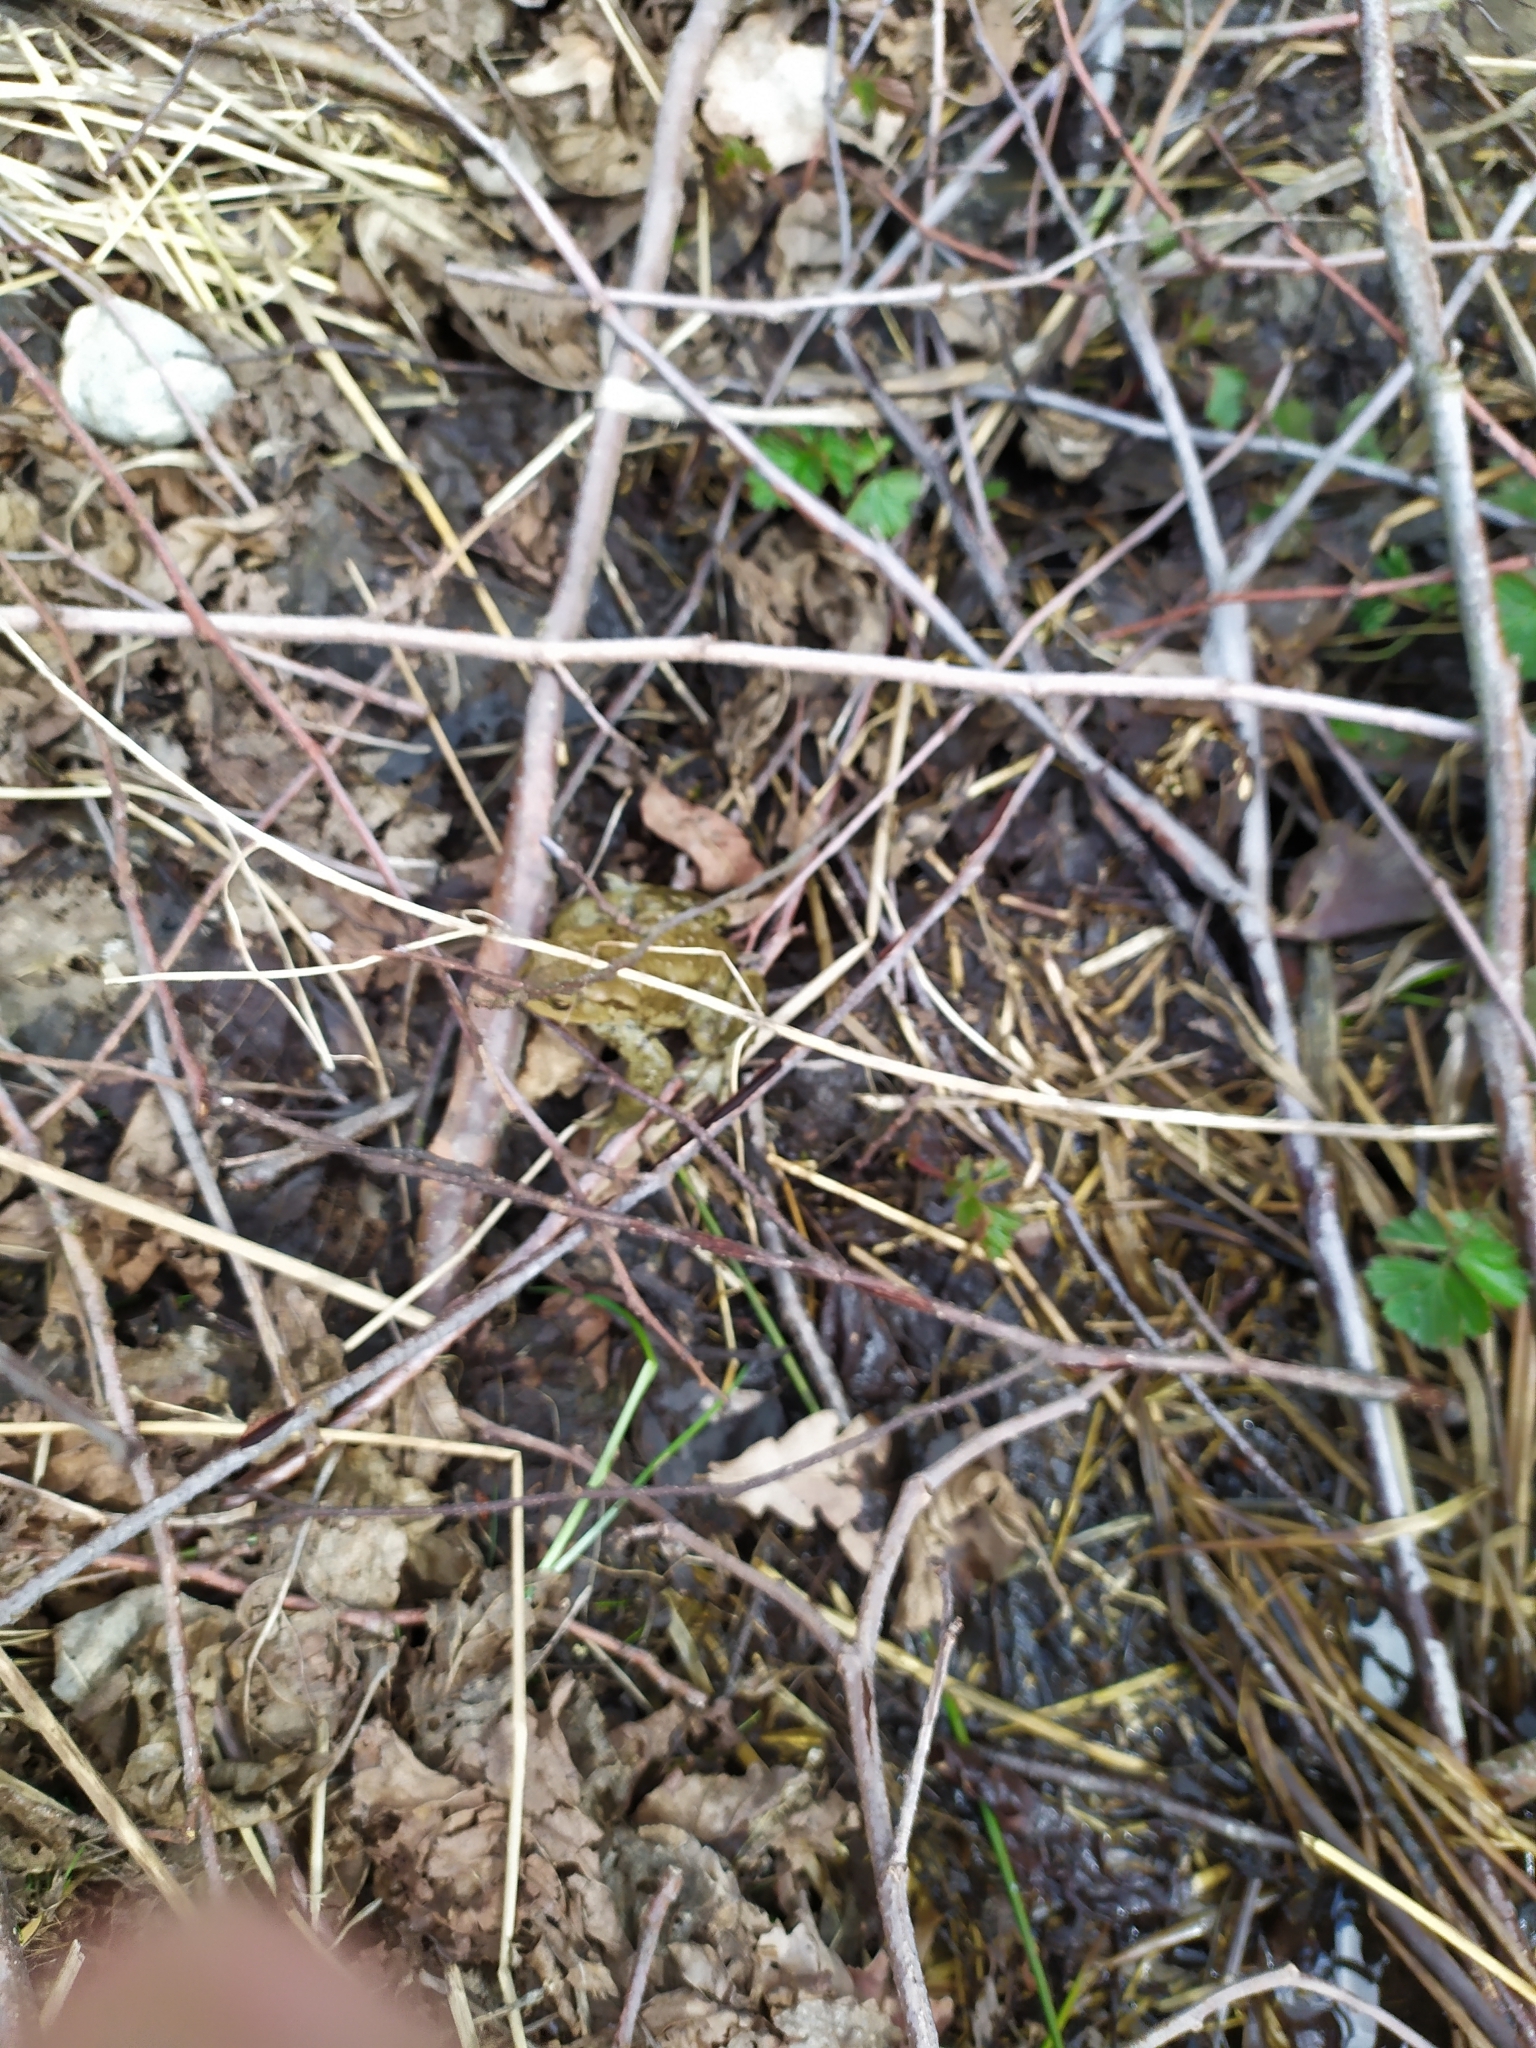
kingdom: Animalia
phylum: Chordata
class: Amphibia
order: Anura
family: Bufonidae
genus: Bufo
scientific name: Bufo bufo
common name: Common toad
